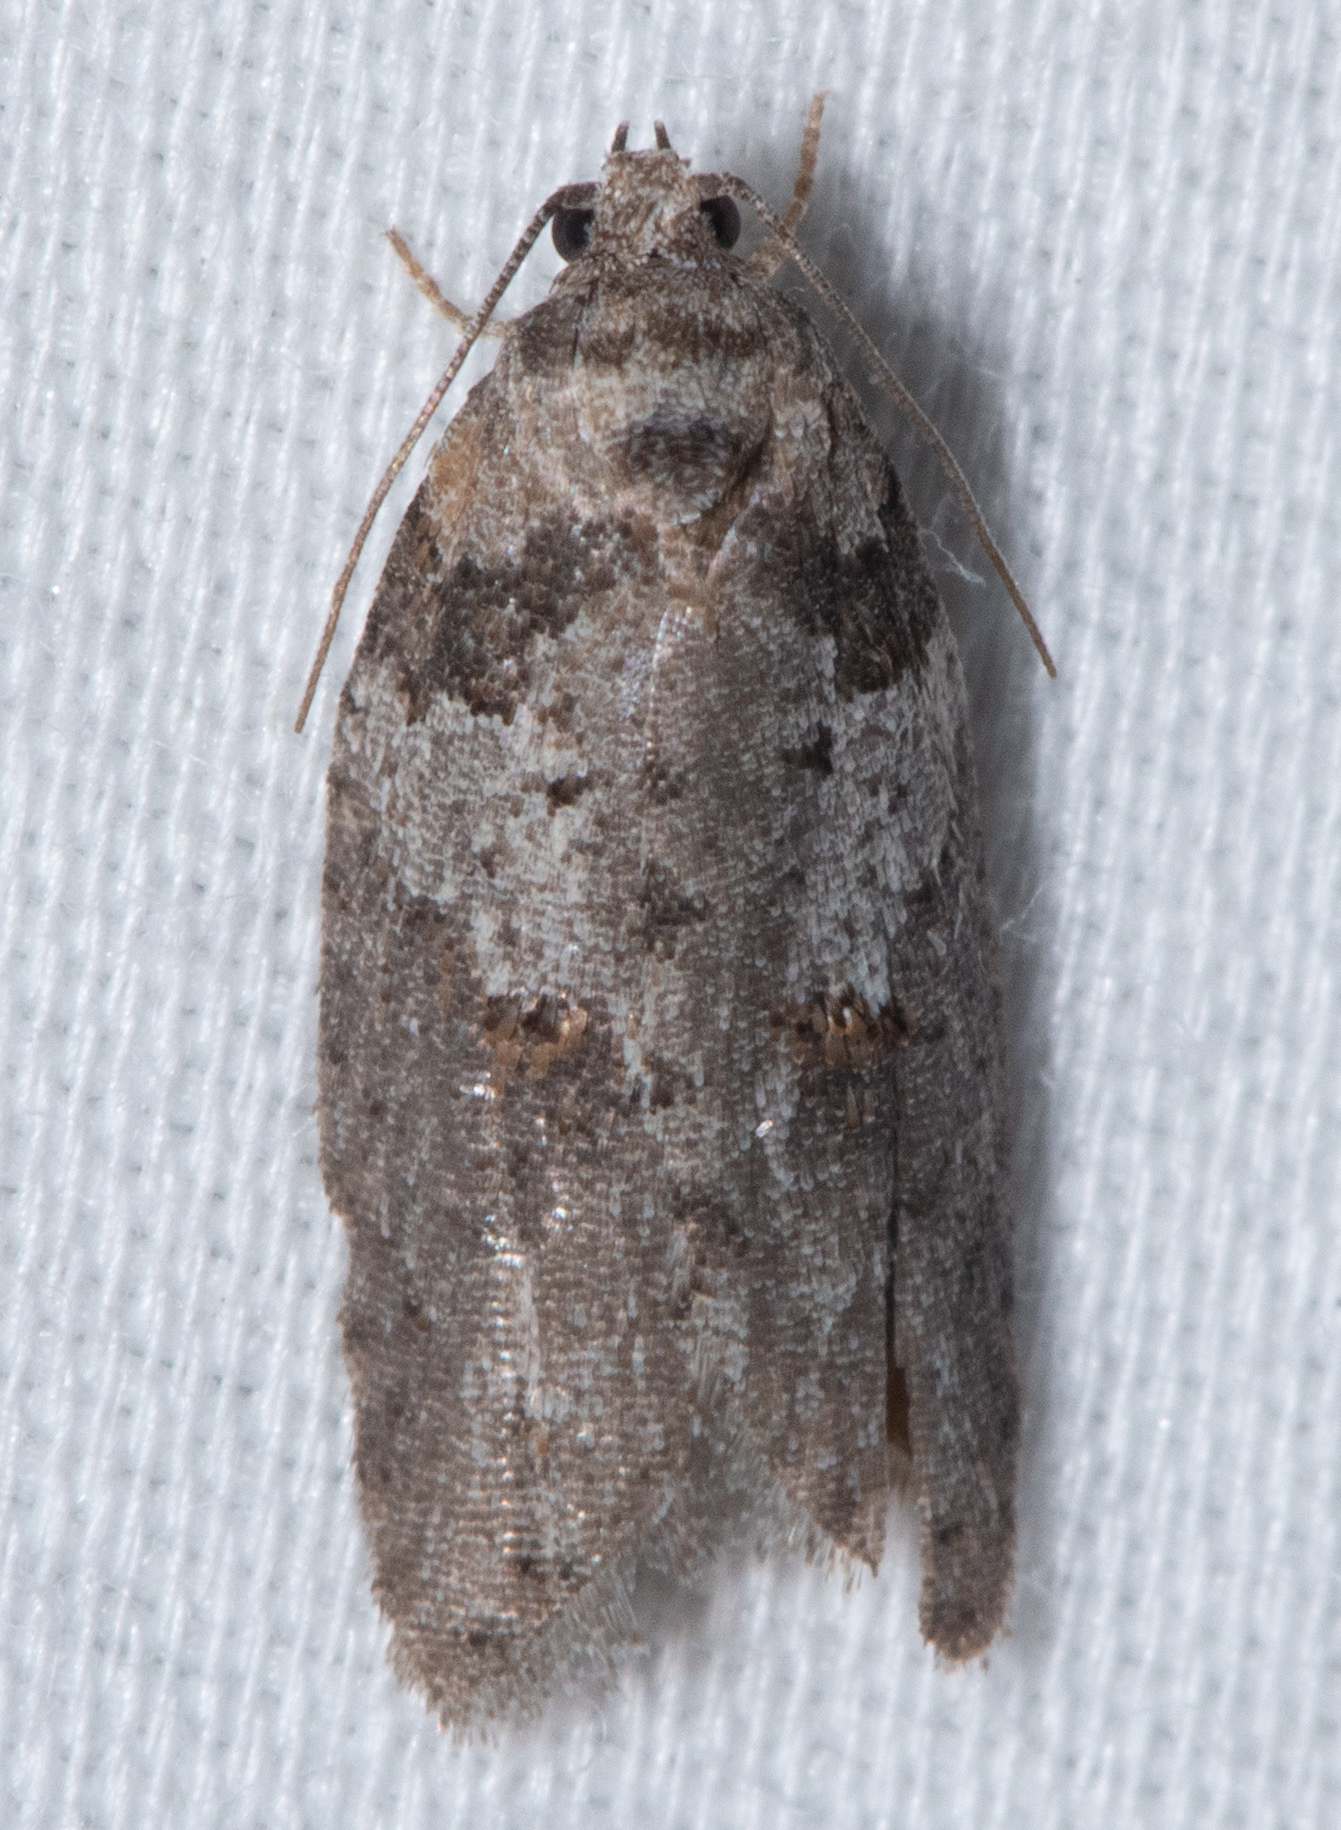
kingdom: Animalia
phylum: Arthropoda
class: Insecta
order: Lepidoptera
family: Tortricidae
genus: Decodes
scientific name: Decodes fragariana
